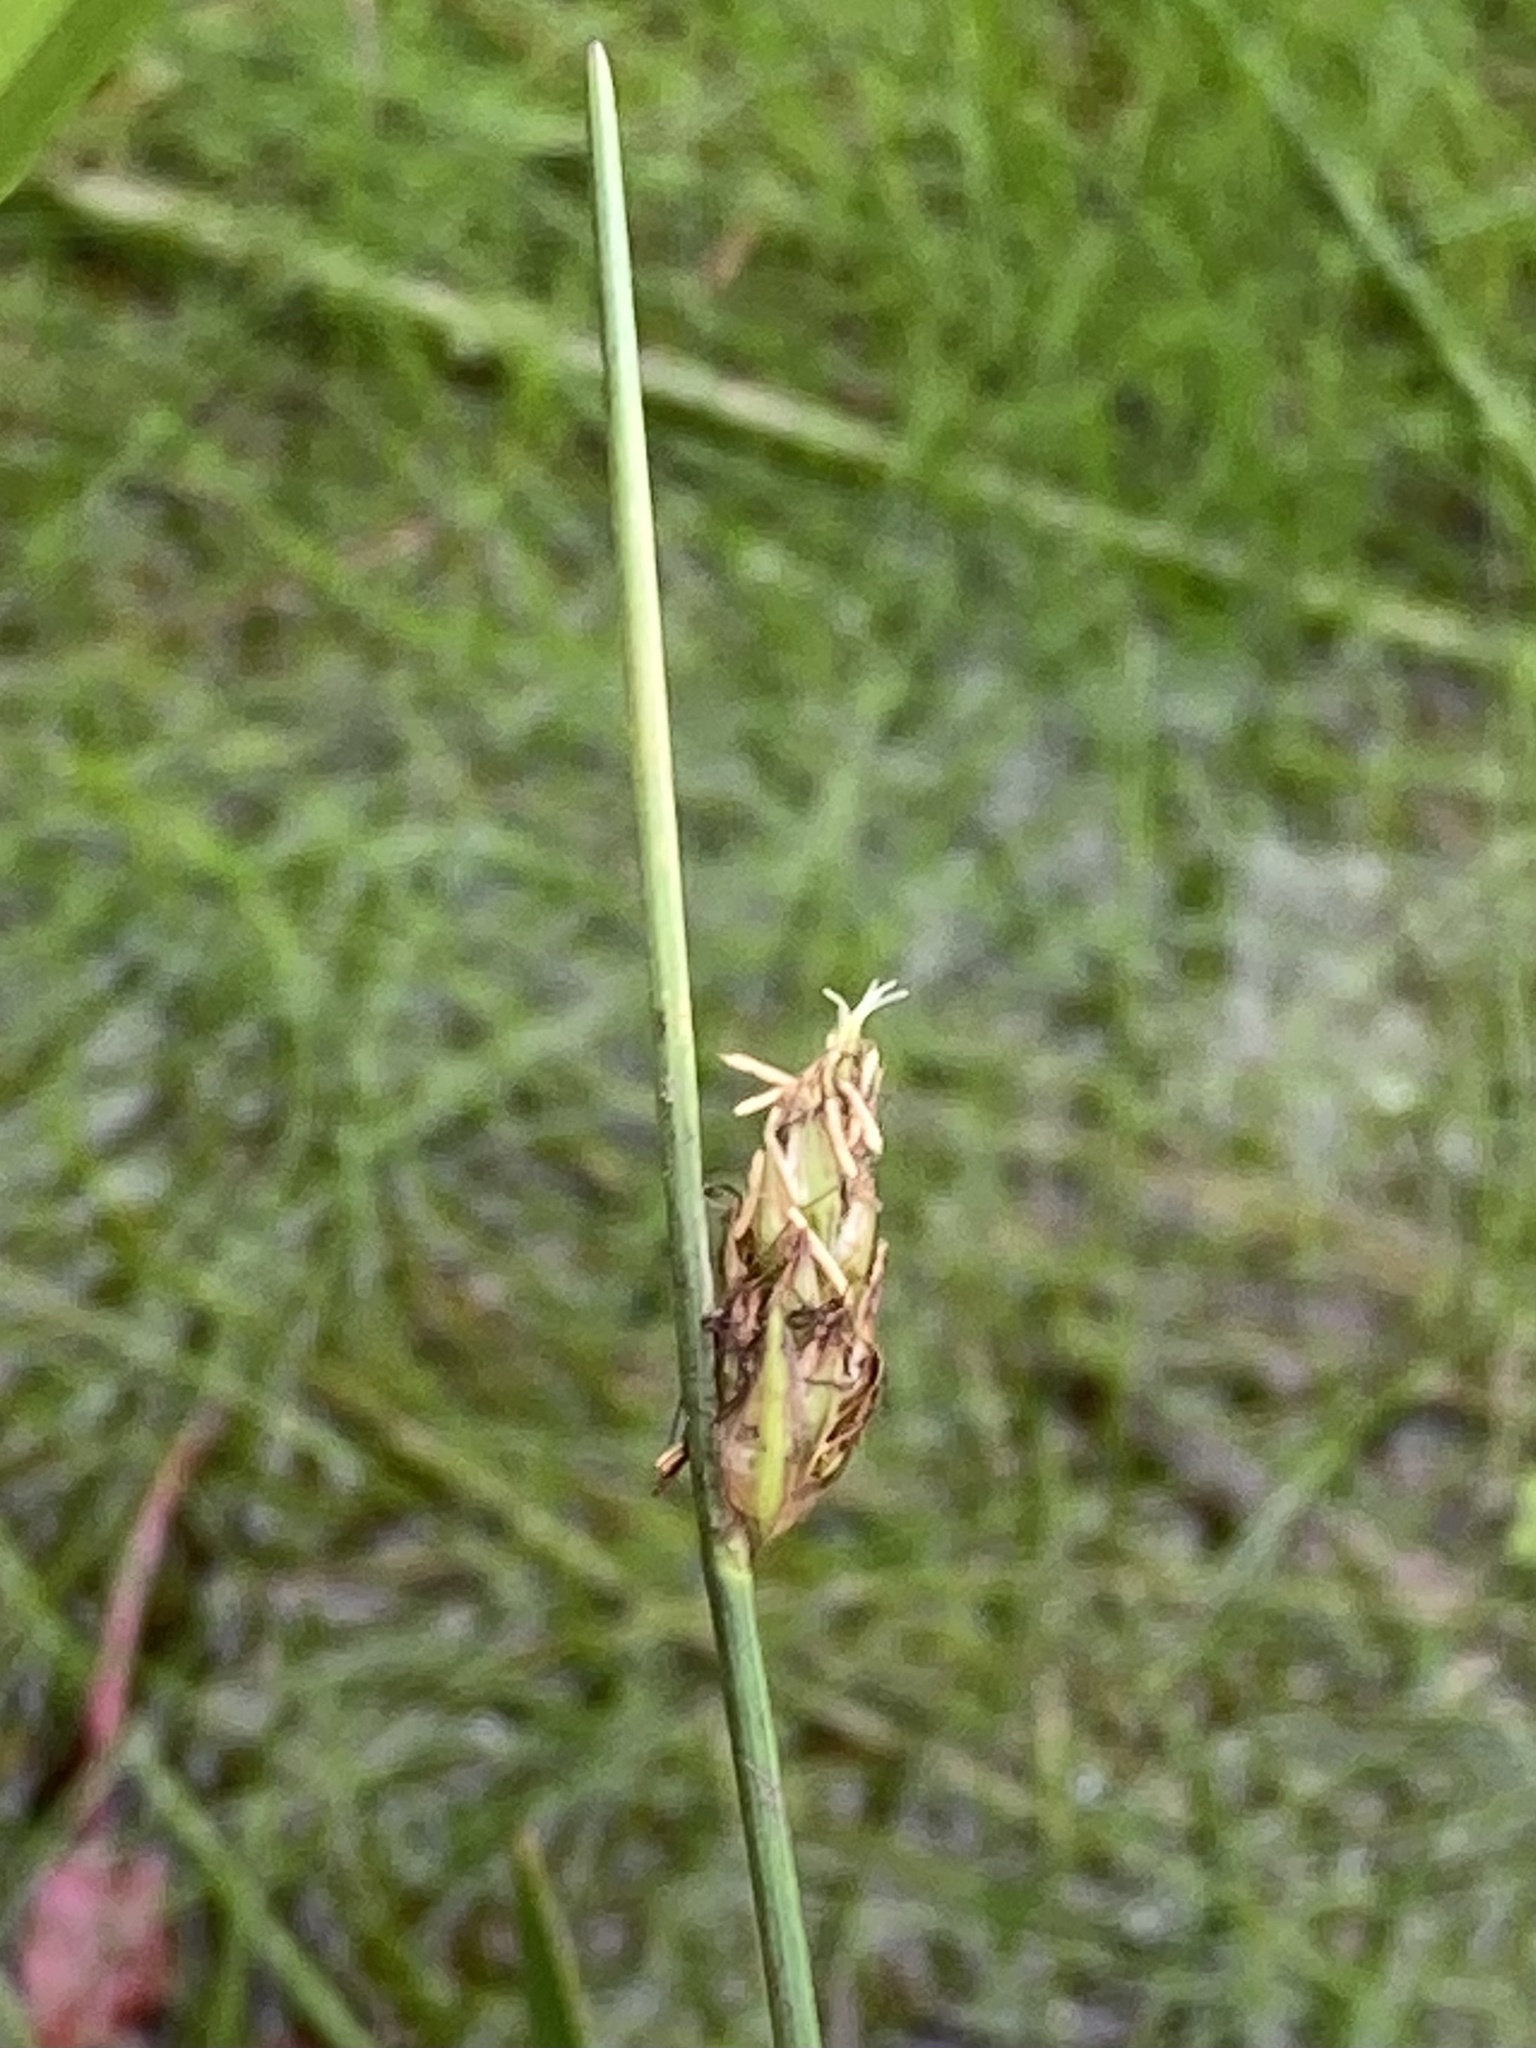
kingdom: Plantae
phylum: Tracheophyta
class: Liliopsida
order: Poales
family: Cyperaceae
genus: Schoenoplectus
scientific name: Schoenoplectus subterminalis
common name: Swaying bulrush
